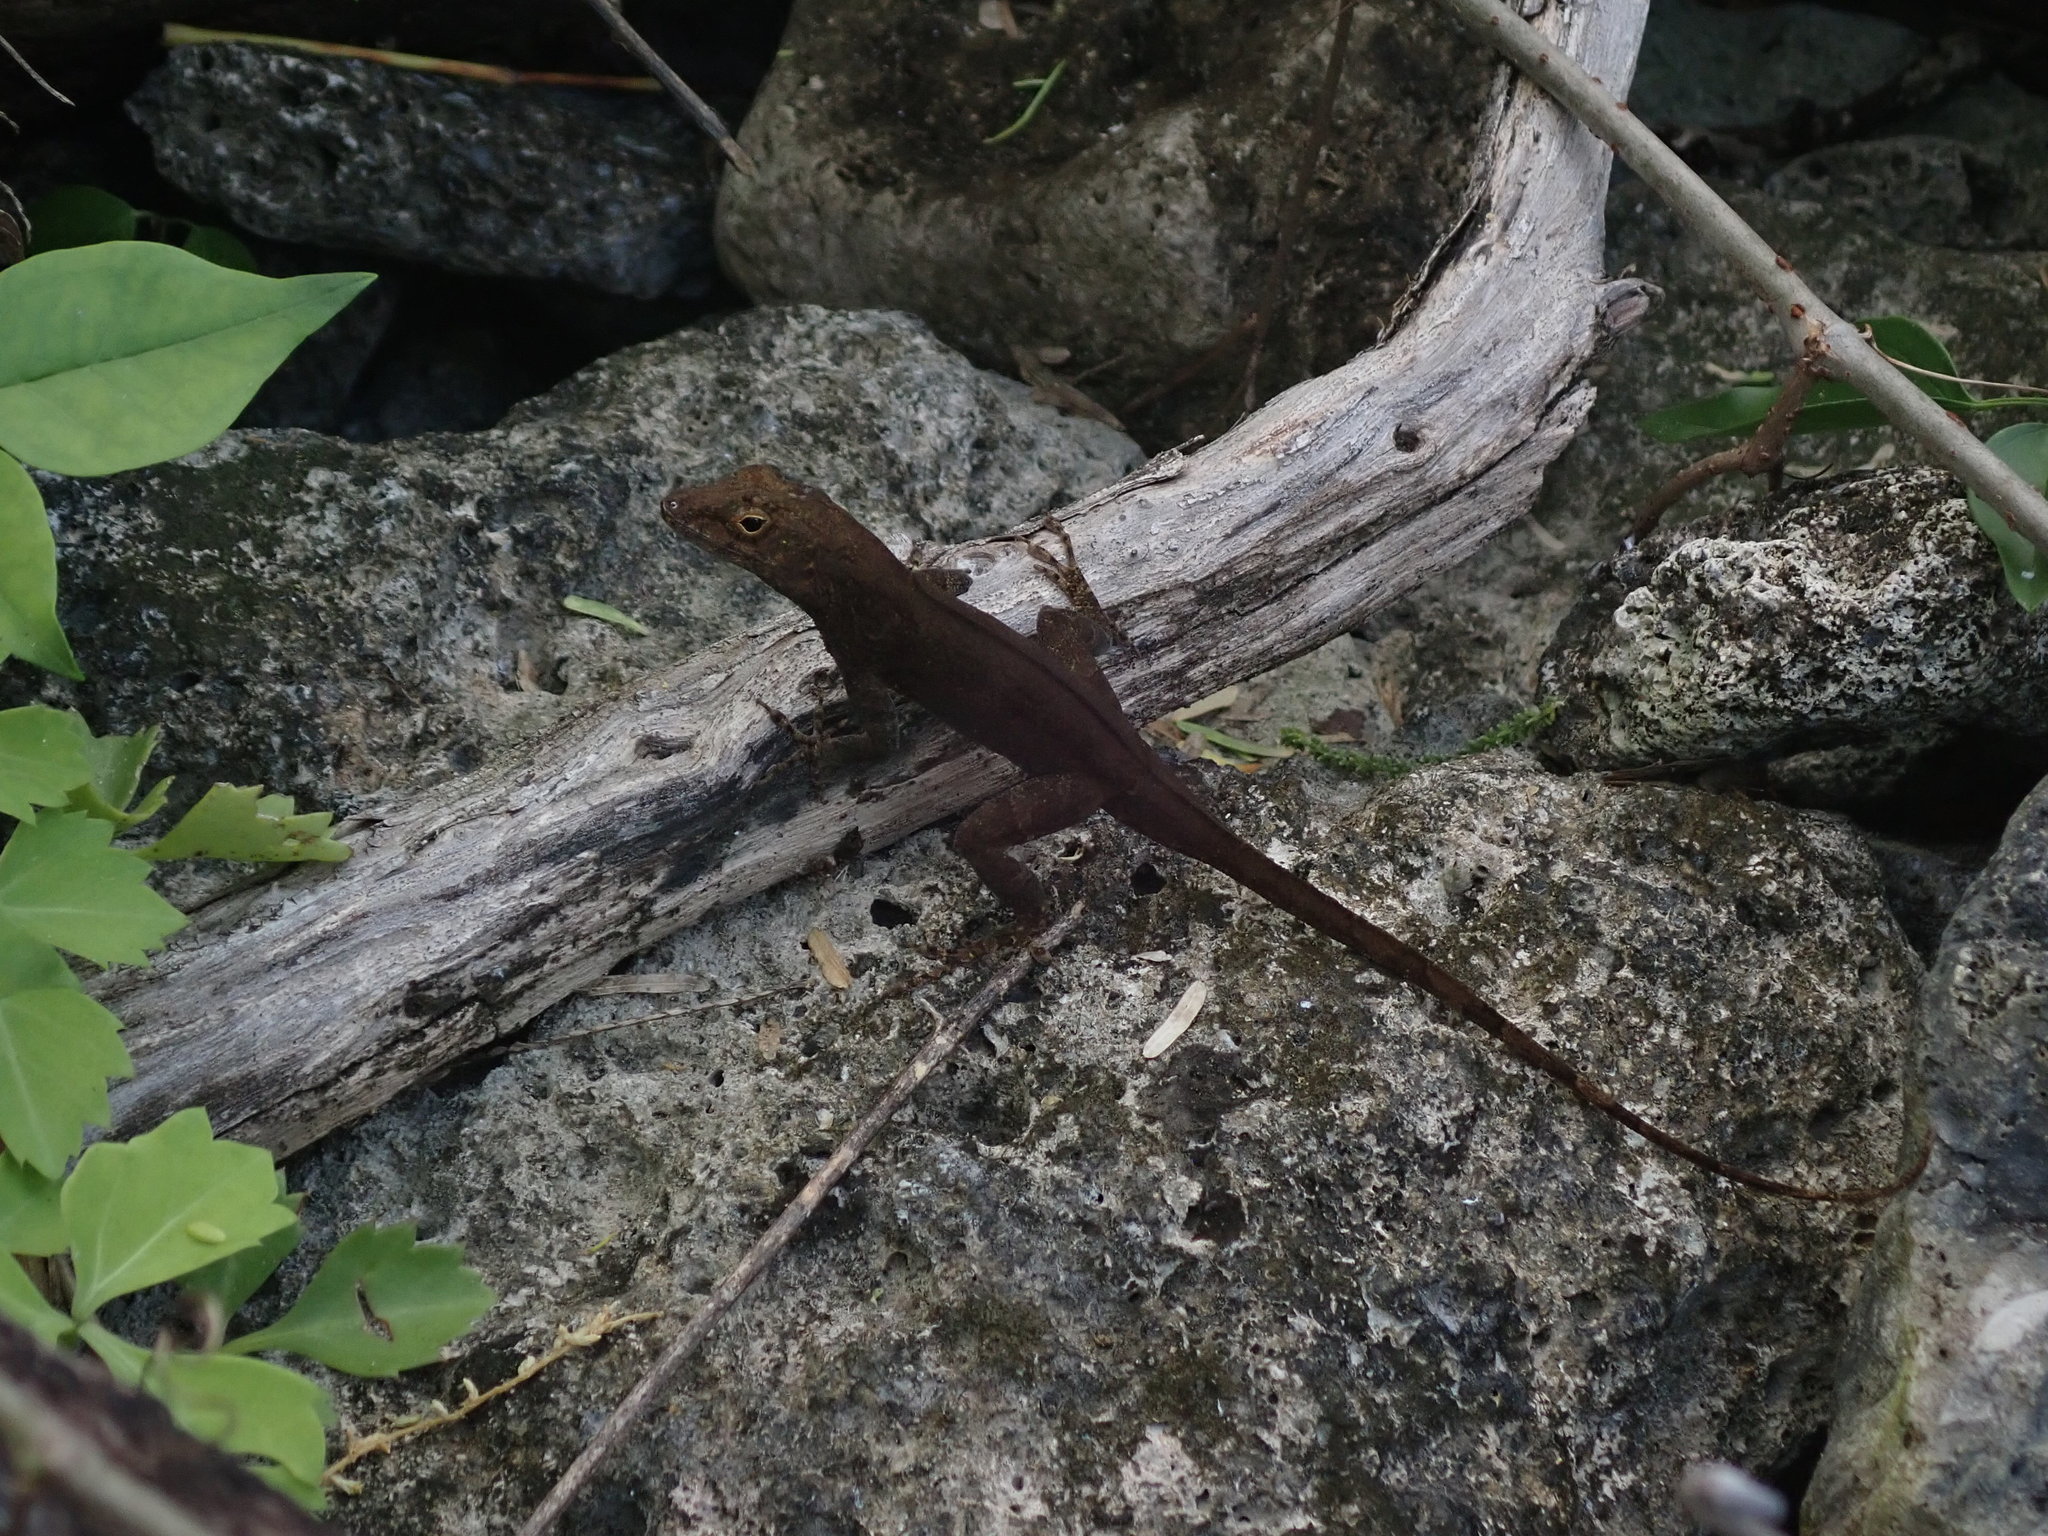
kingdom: Animalia
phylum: Chordata
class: Squamata
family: Dactyloidae
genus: Anolis
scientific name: Anolis cristatellus
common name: Crested anole
